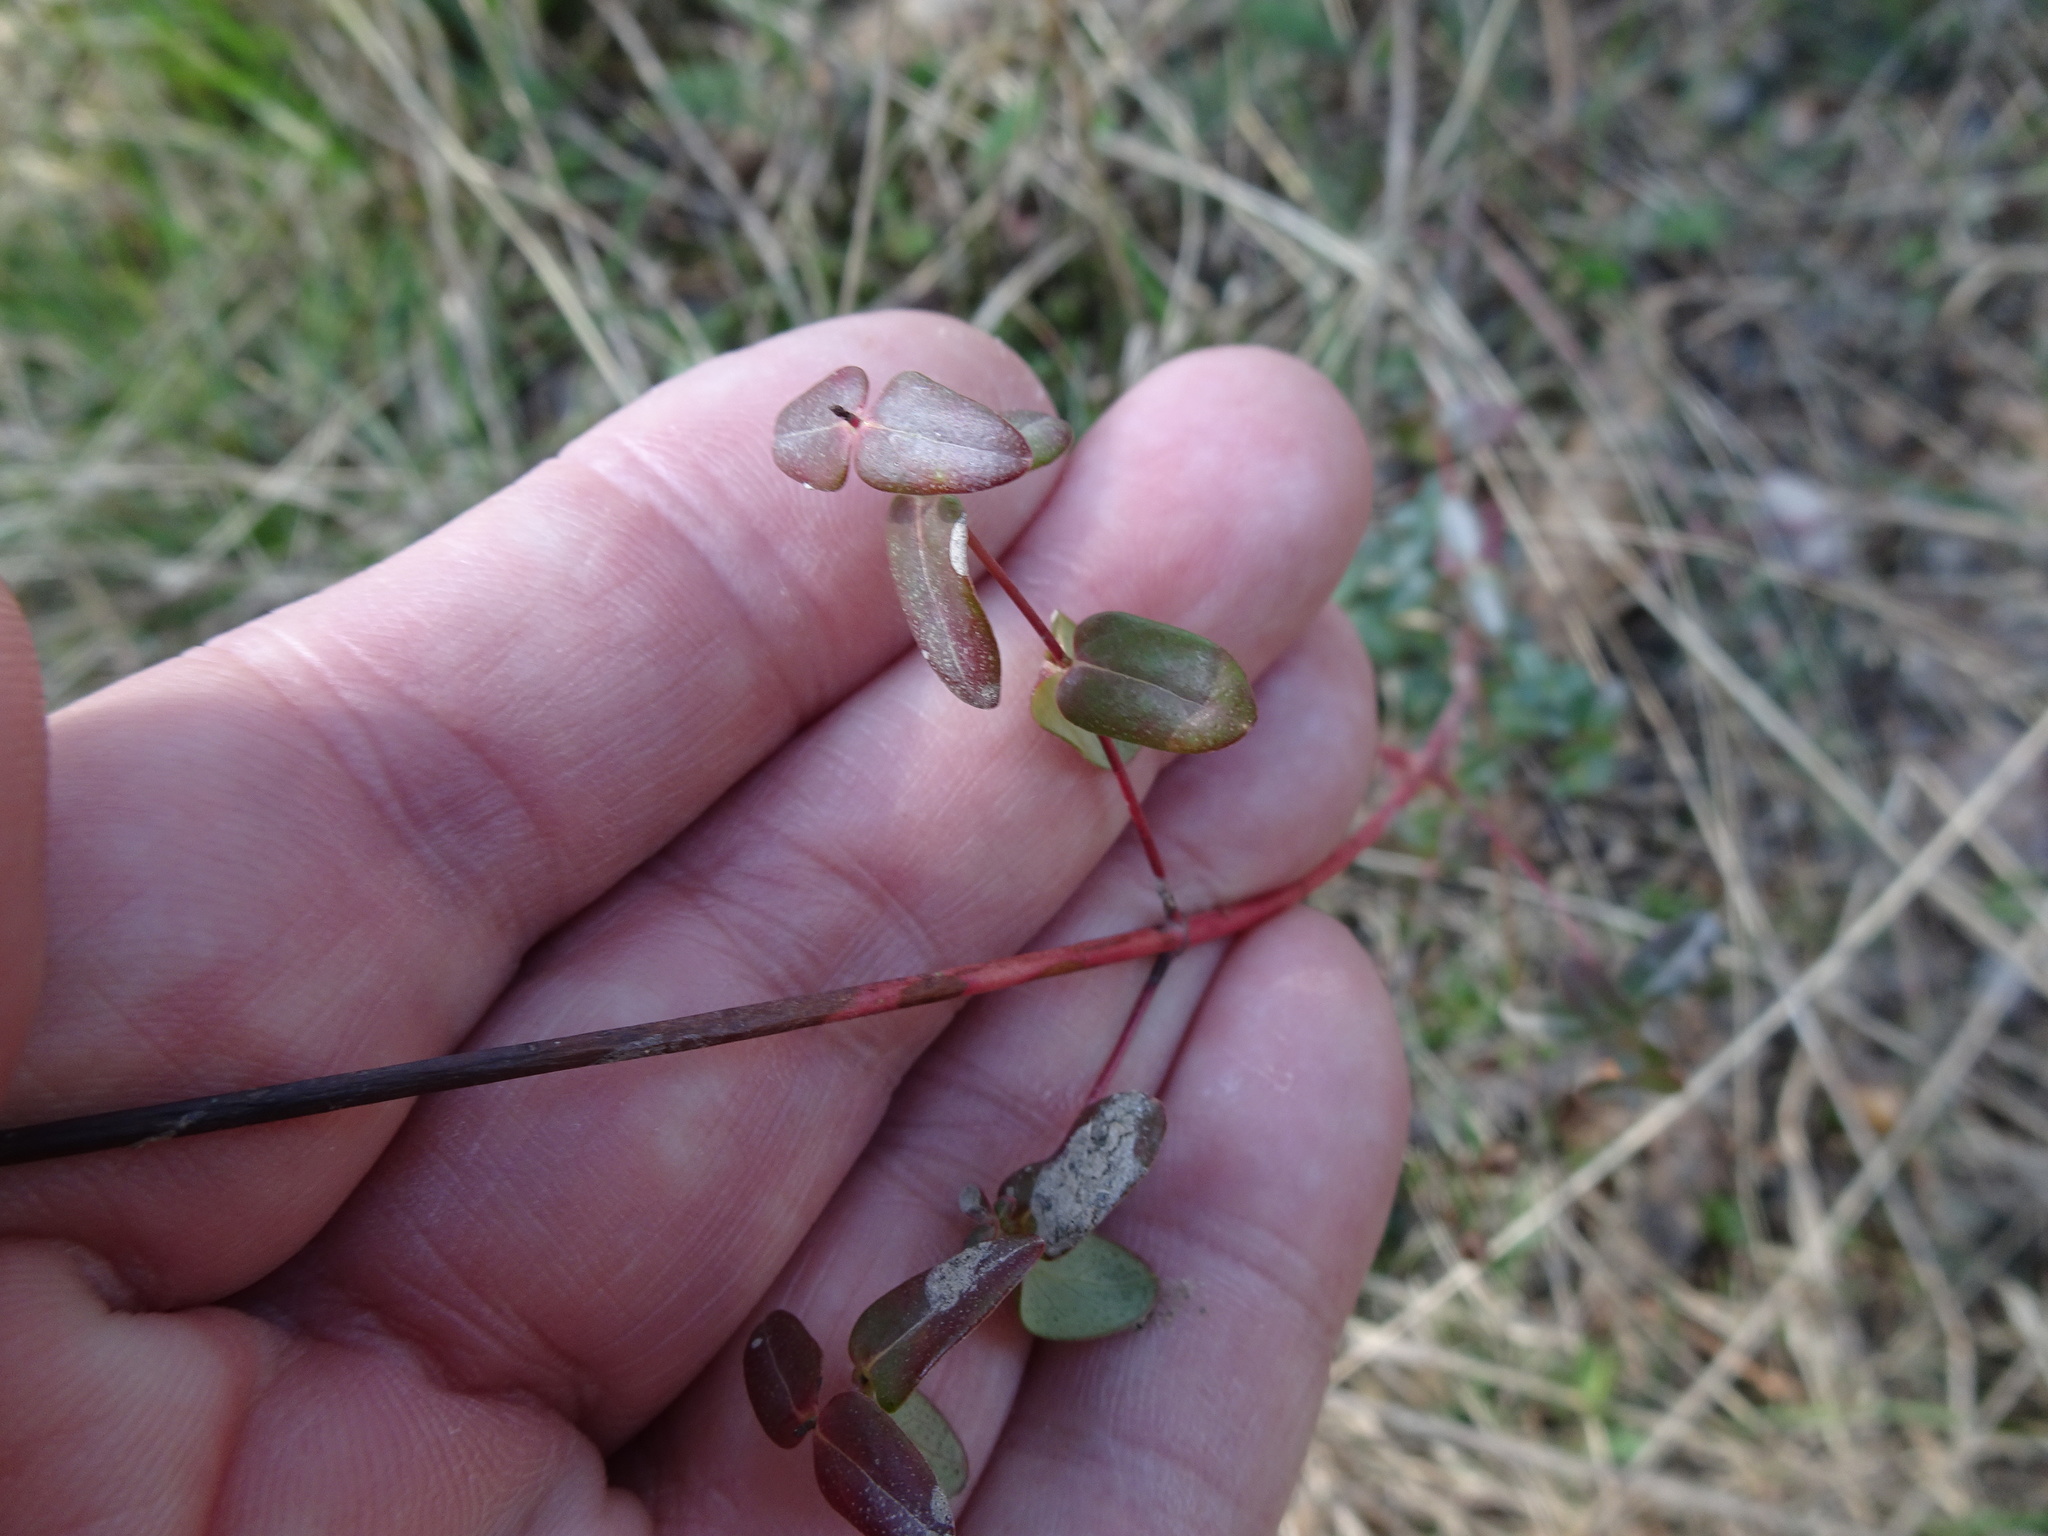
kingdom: Plantae
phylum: Tracheophyta
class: Magnoliopsida
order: Malpighiales
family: Hypericaceae
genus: Hypericum
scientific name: Hypericum pulchrum
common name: Slender st. john's-wort
